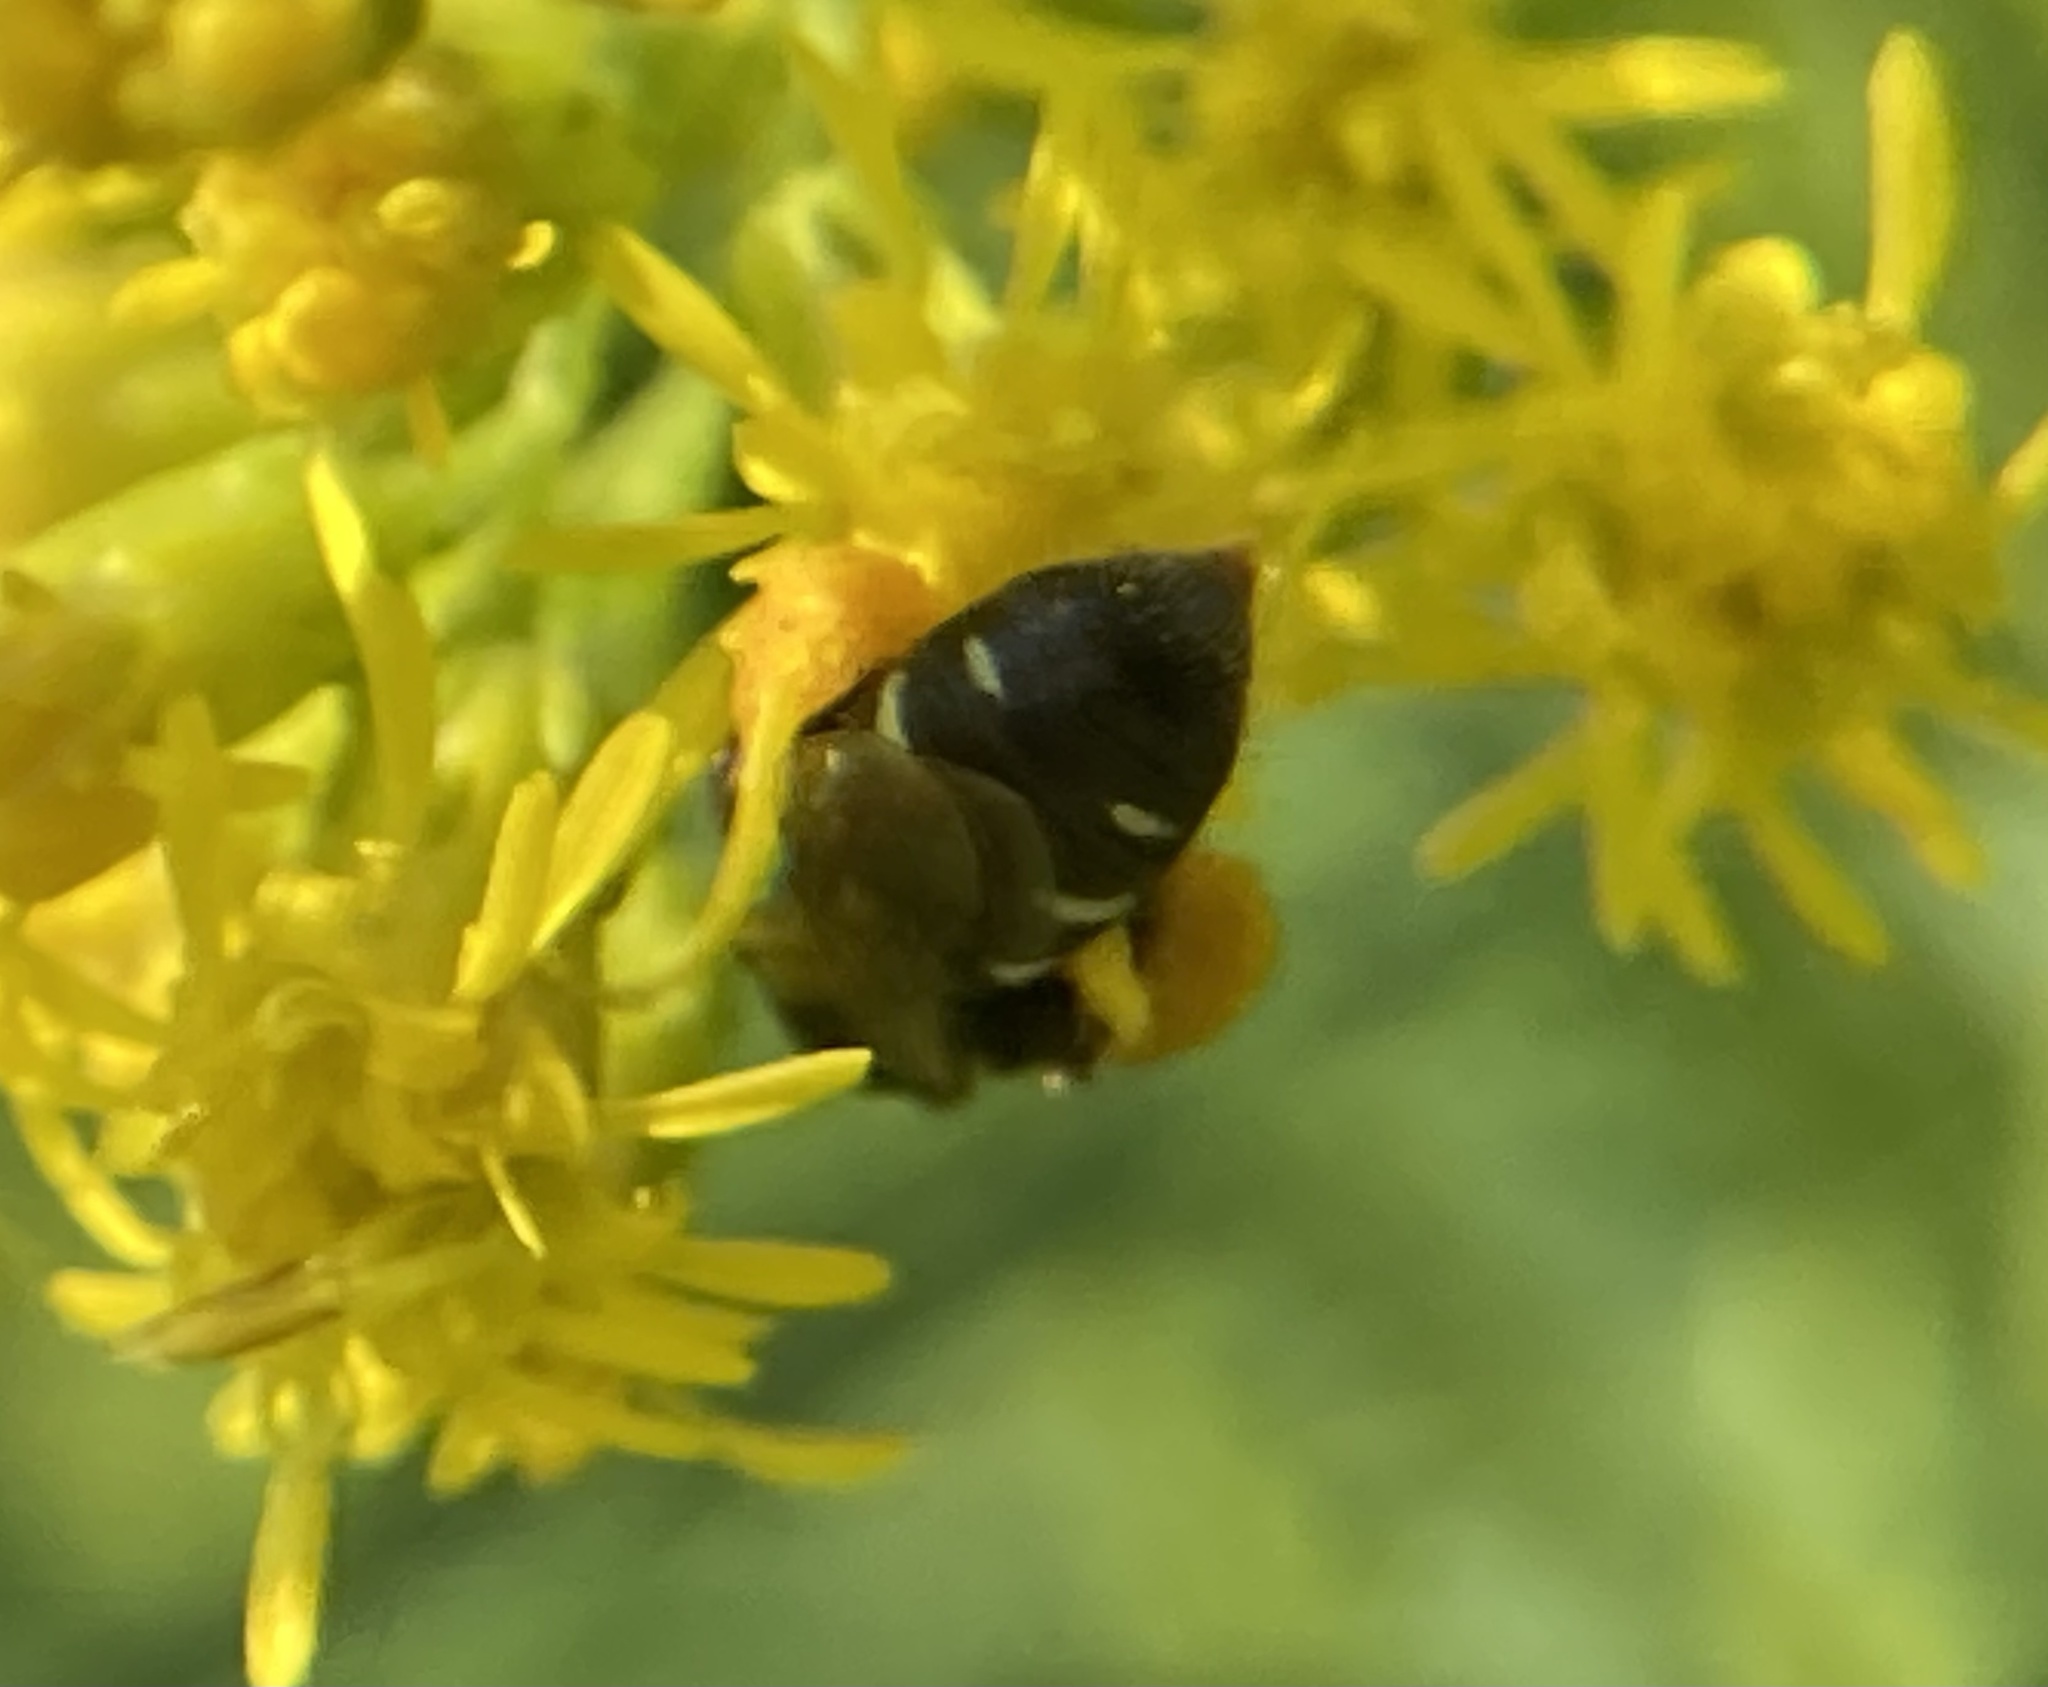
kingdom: Animalia
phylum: Arthropoda
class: Insecta
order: Hymenoptera
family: Andrenidae
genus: Perdita
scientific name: Perdita octomaculata
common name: Eight-spotted miner bee
